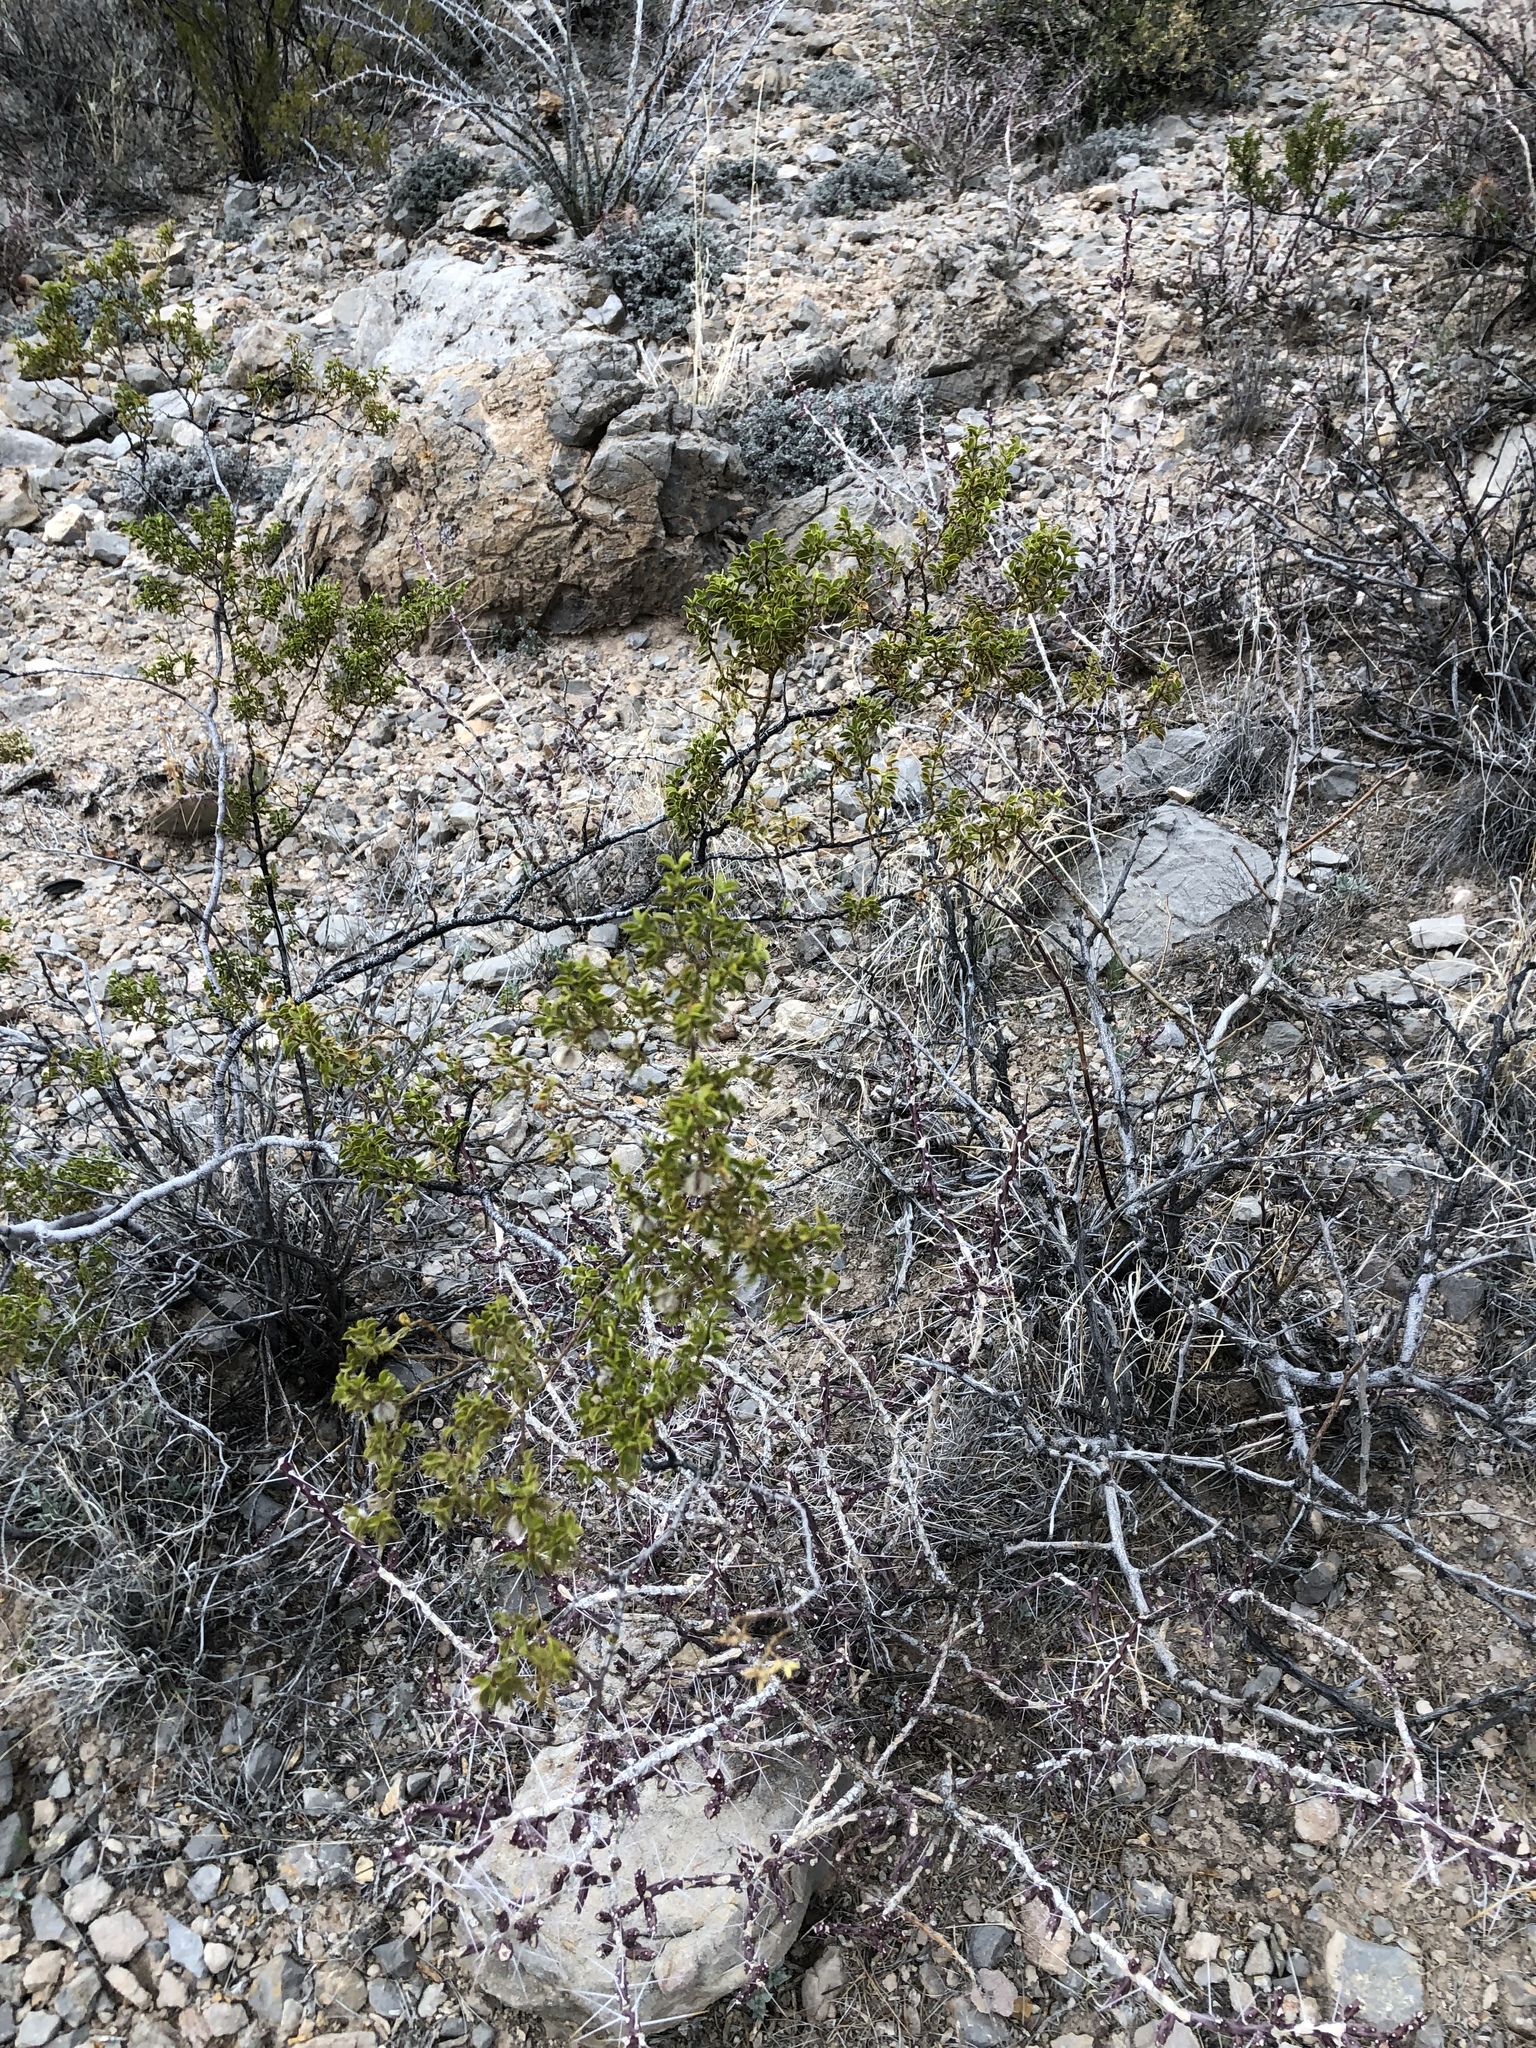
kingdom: Plantae
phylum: Tracheophyta
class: Magnoliopsida
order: Zygophyllales
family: Zygophyllaceae
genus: Larrea
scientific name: Larrea tridentata
